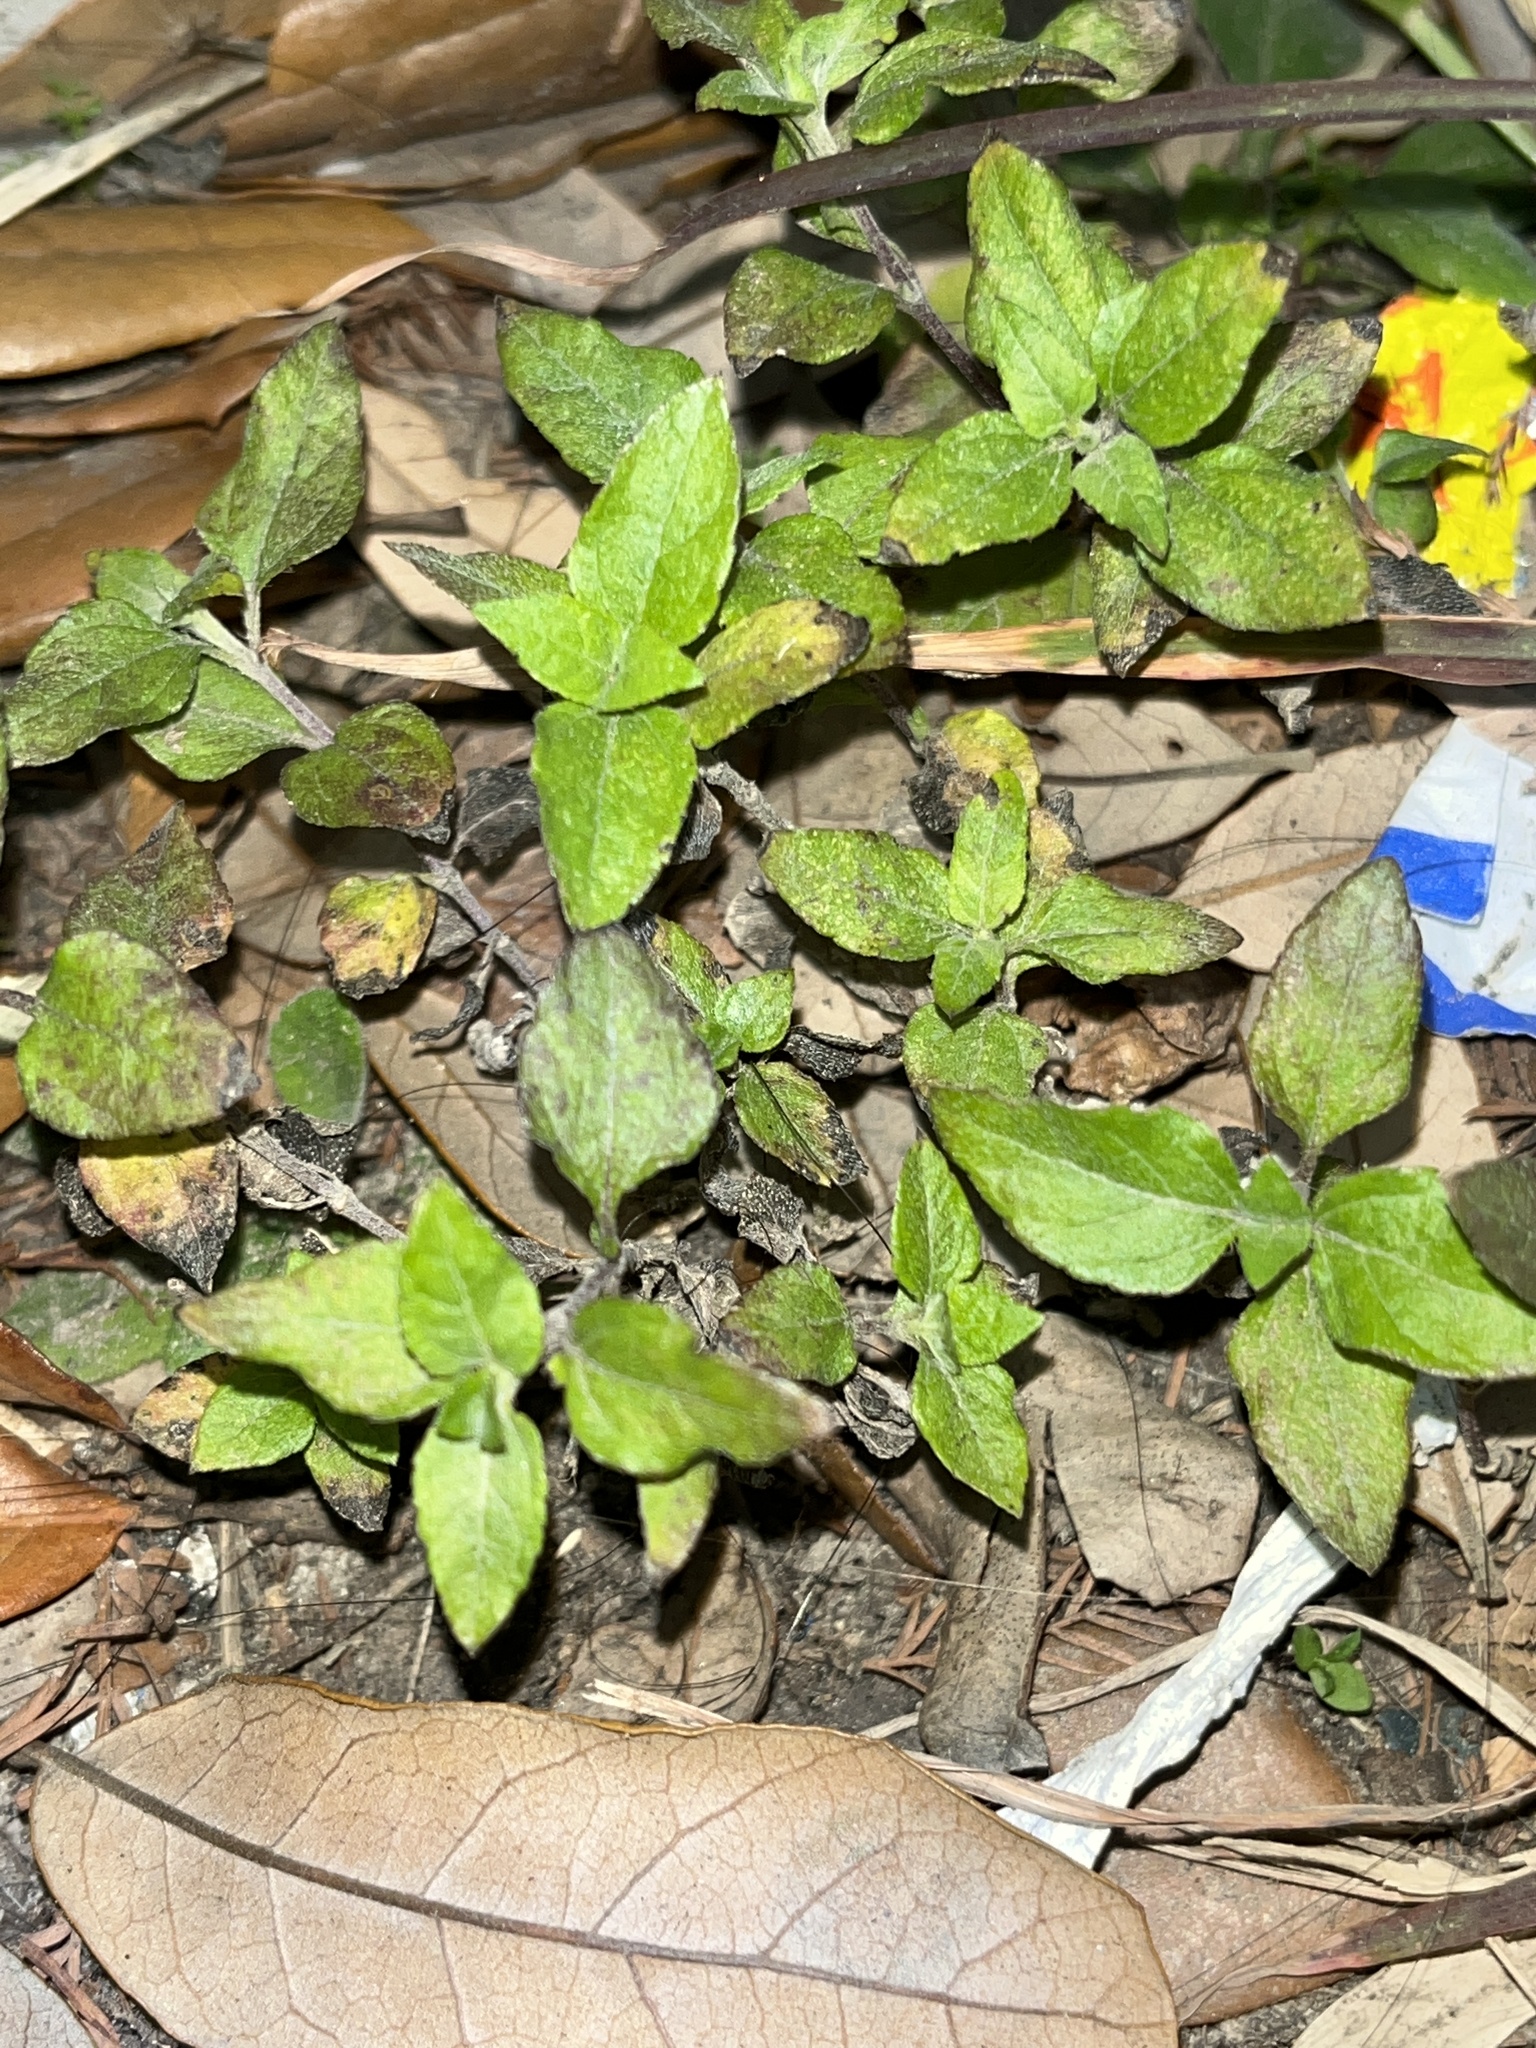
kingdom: Plantae
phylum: Tracheophyta
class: Magnoliopsida
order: Asterales
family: Asteraceae
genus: Calyptocarpus
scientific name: Calyptocarpus vialis
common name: Straggler daisy
